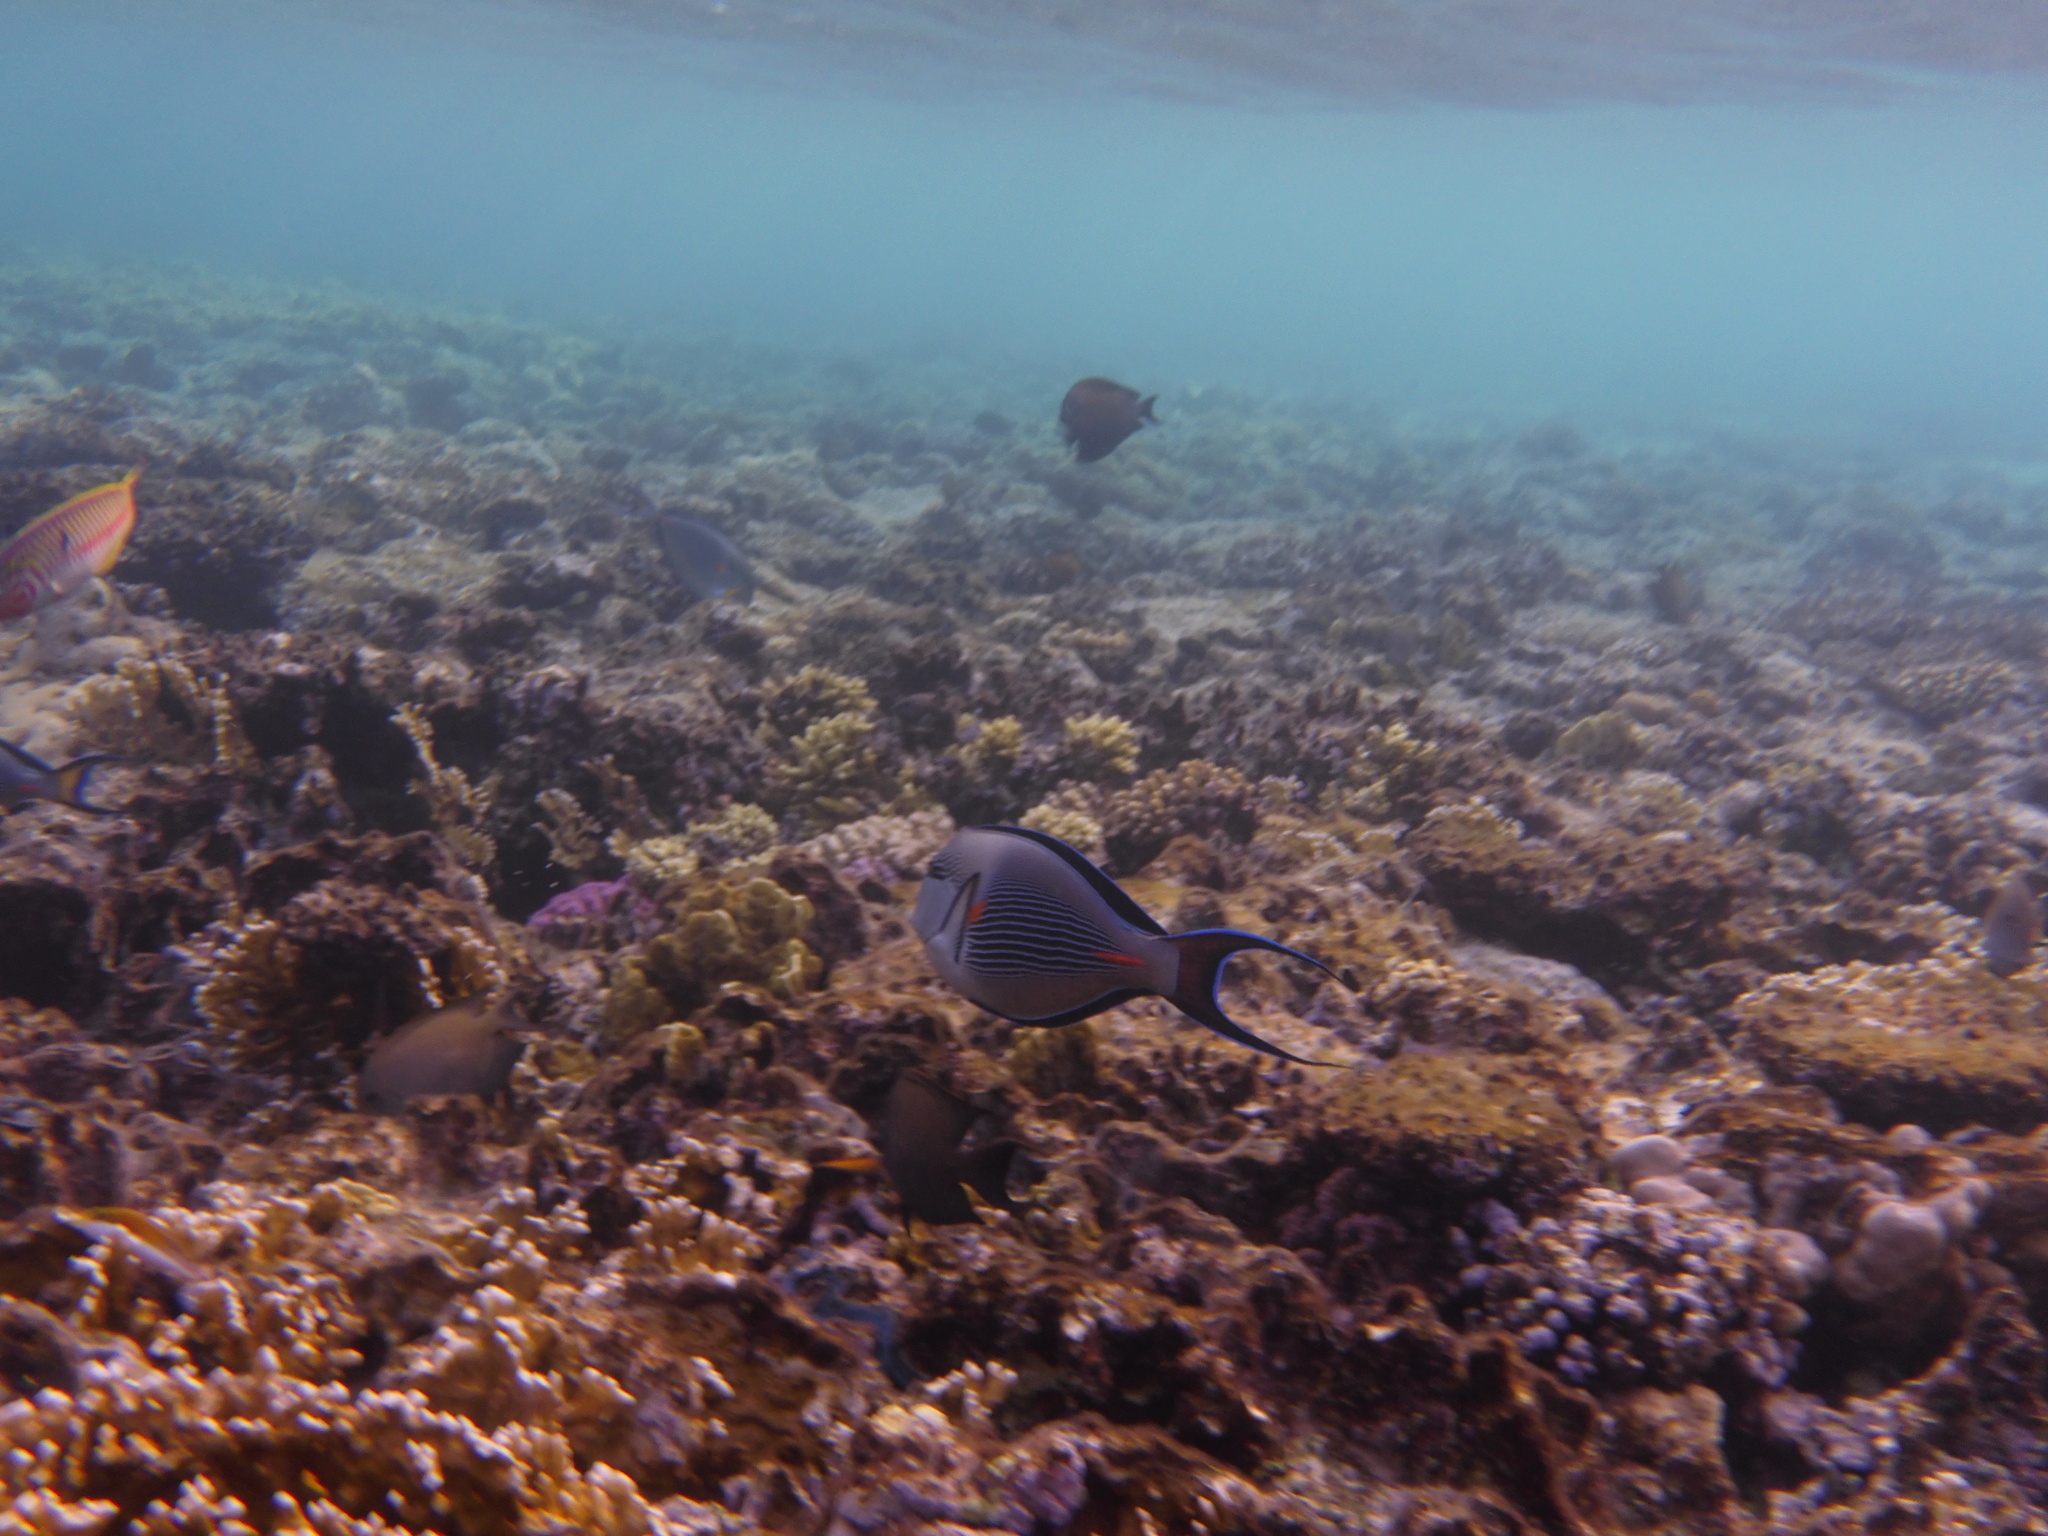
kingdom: Animalia
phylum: Chordata
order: Perciformes
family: Acanthuridae
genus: Acanthurus
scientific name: Acanthurus sohal
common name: Red sea surgeonfish
